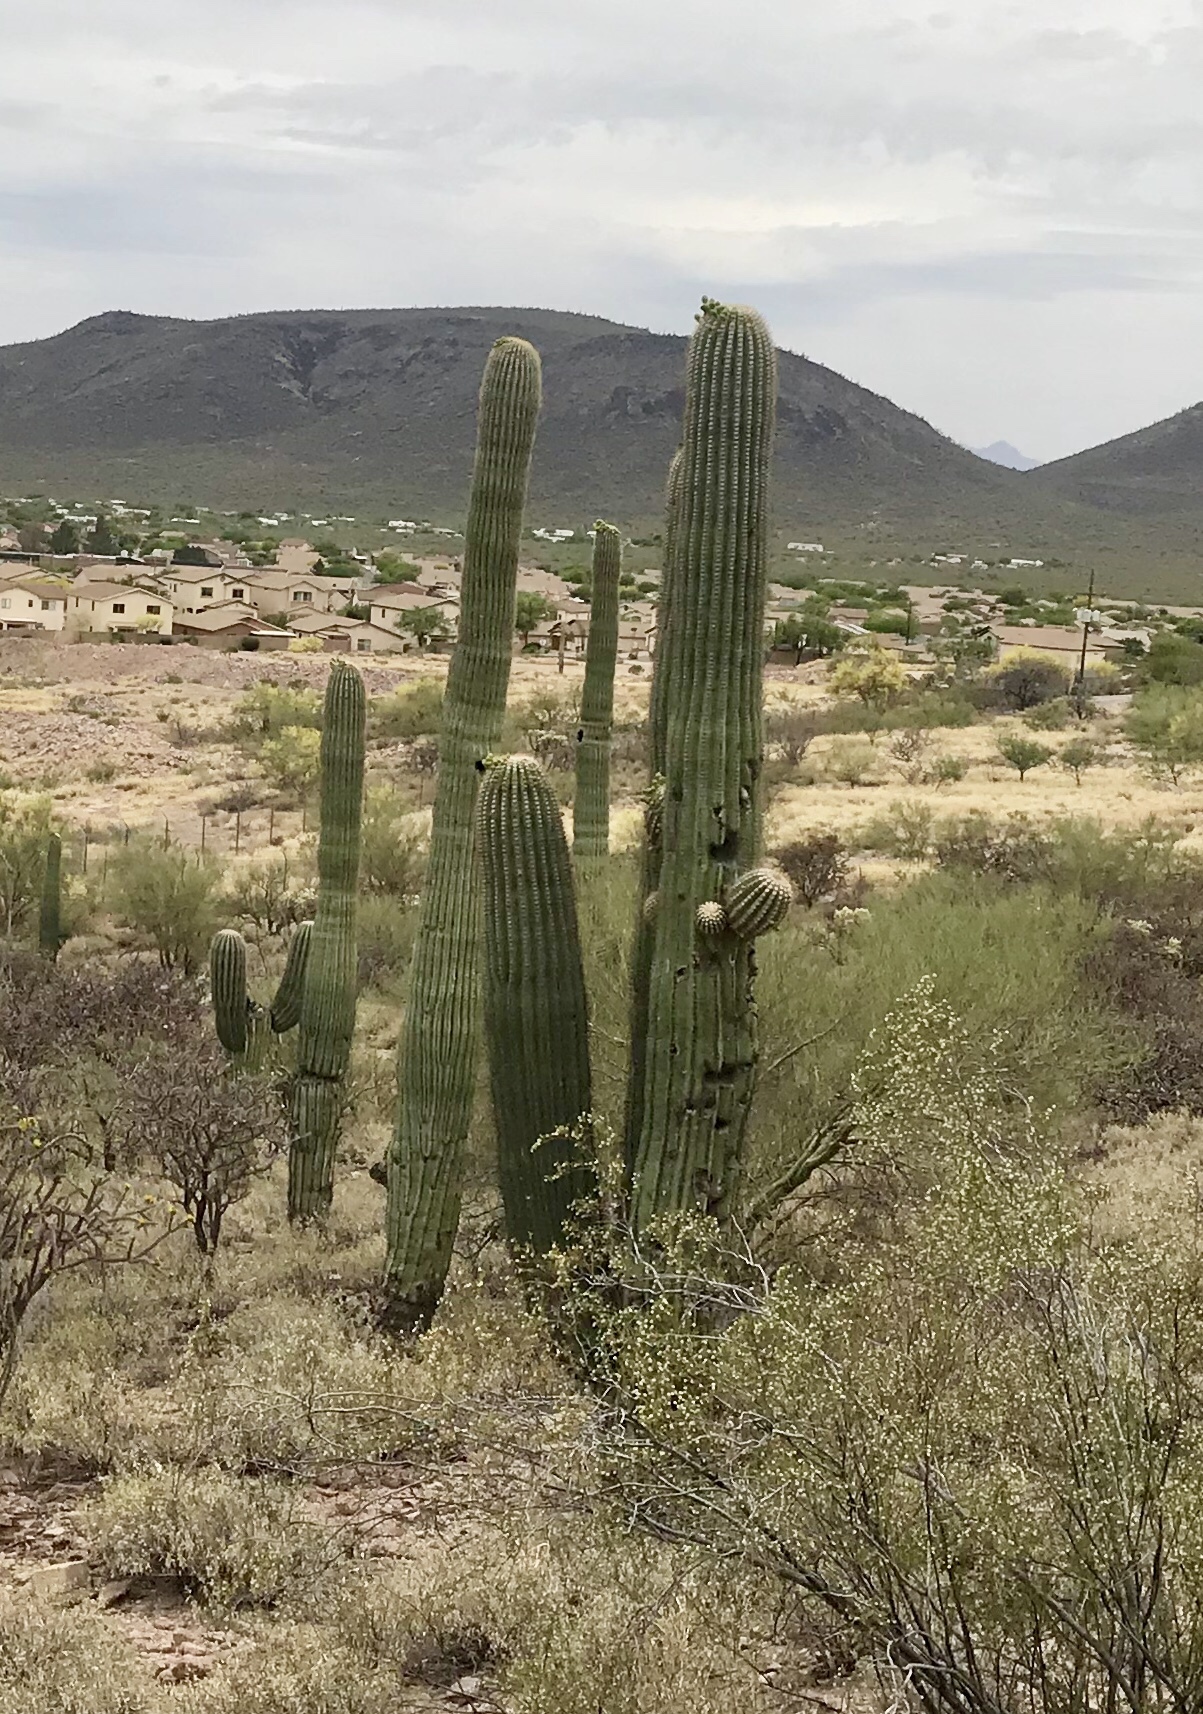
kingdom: Plantae
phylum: Tracheophyta
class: Magnoliopsida
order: Caryophyllales
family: Cactaceae
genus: Carnegiea
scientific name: Carnegiea gigantea
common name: Saguaro
